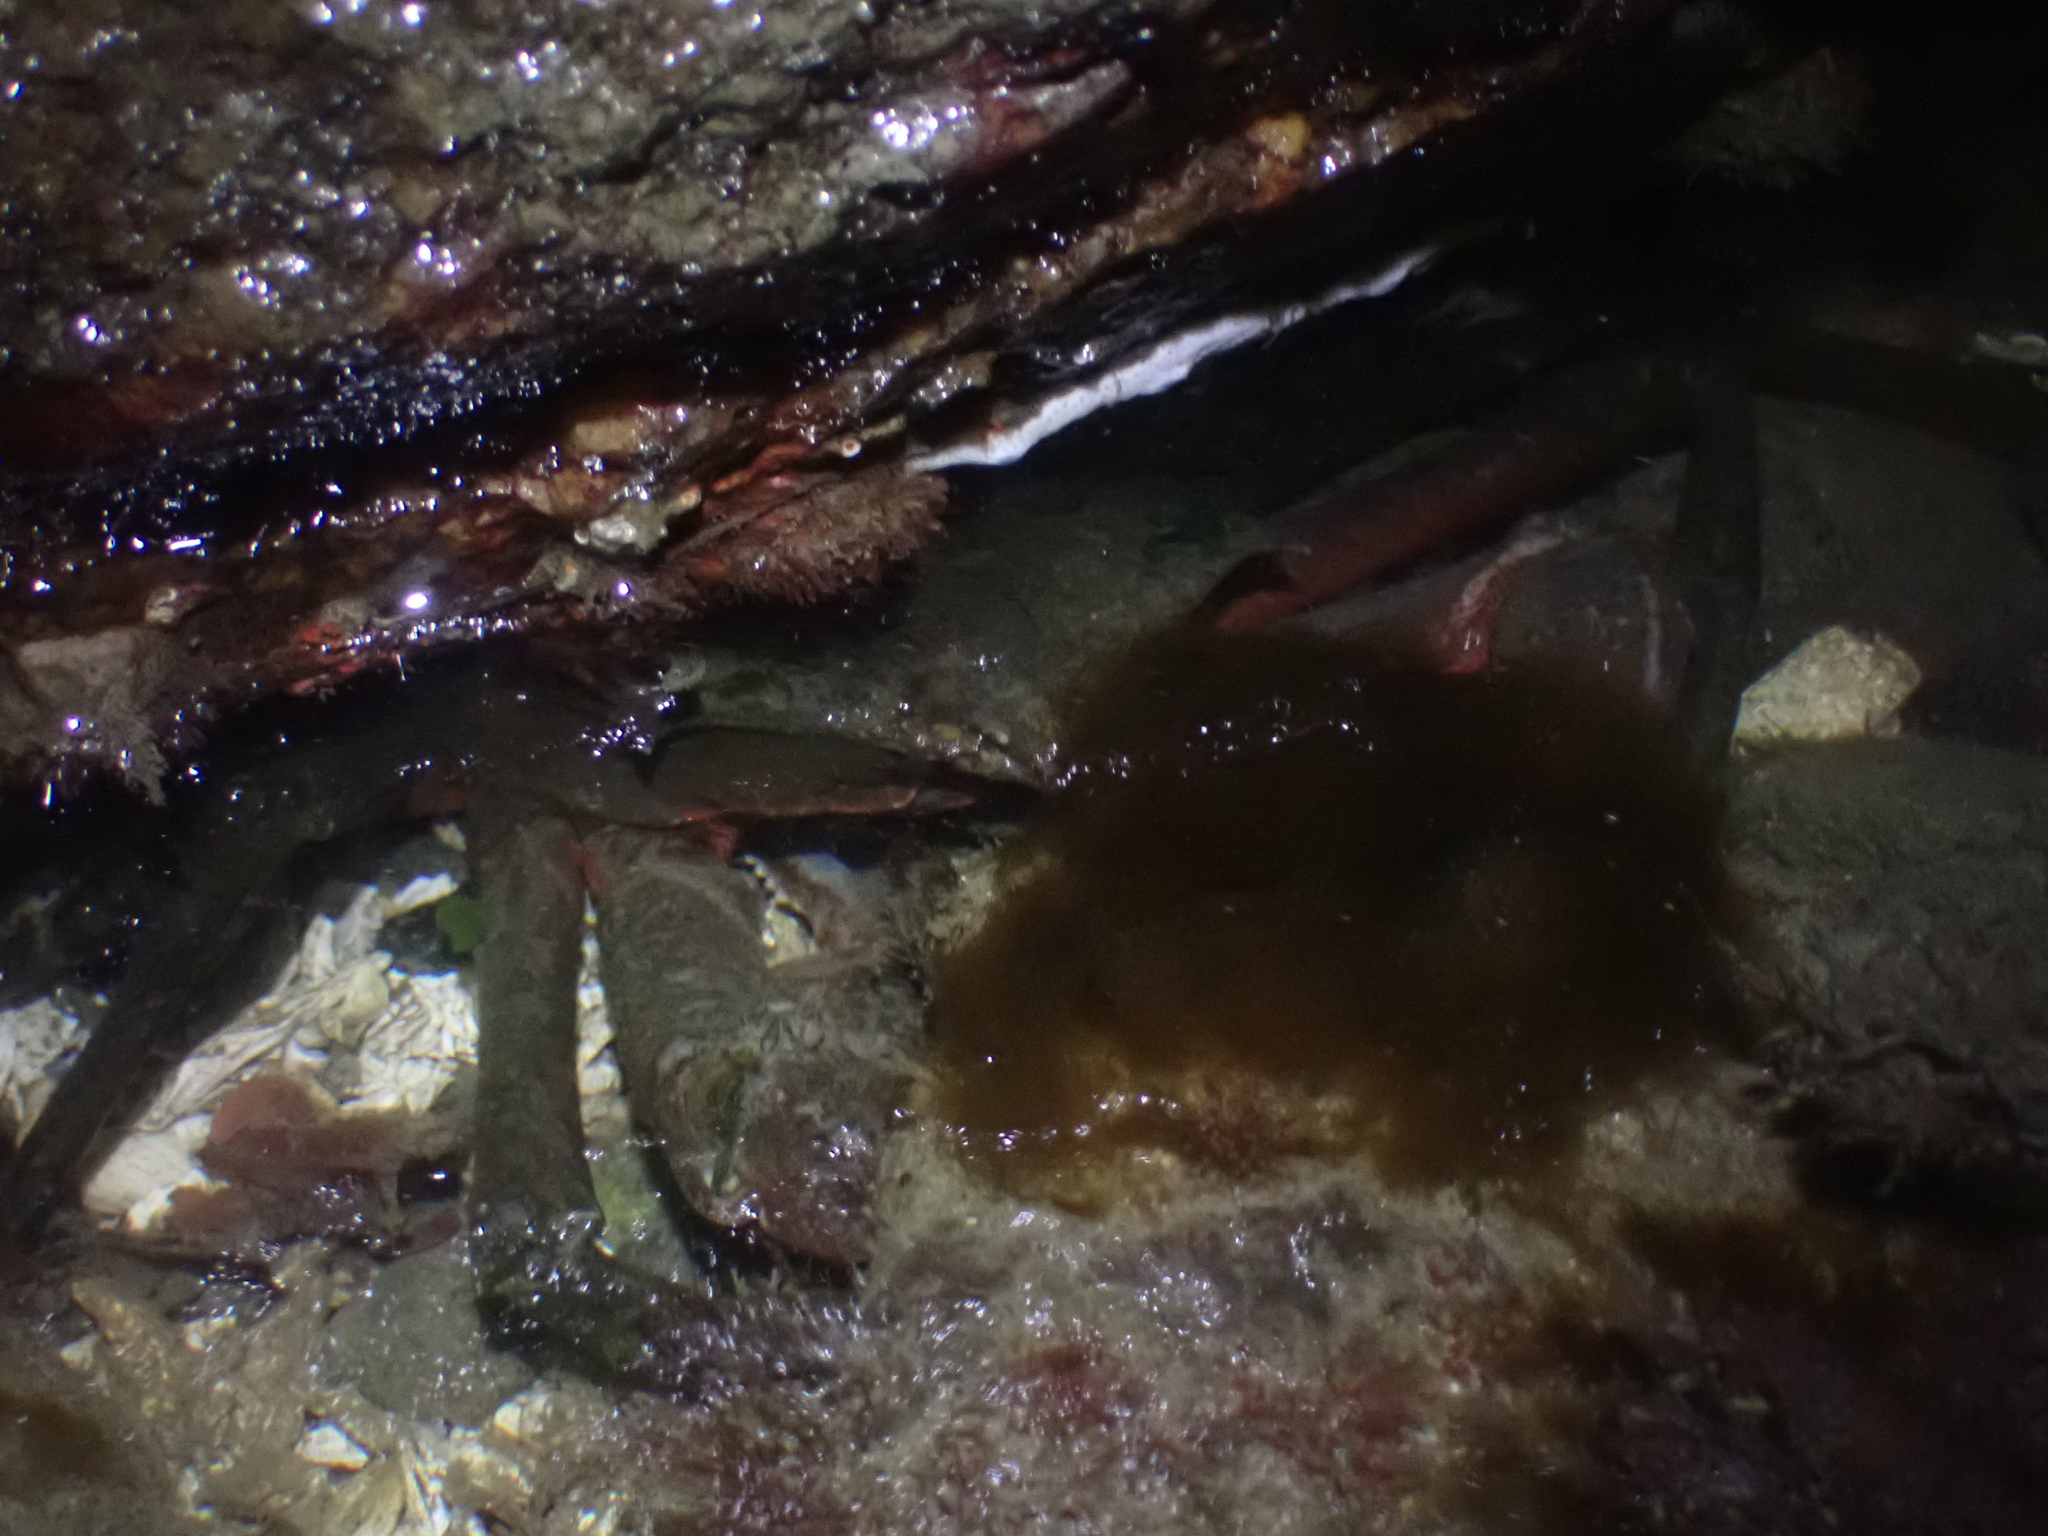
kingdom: Animalia
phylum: Arthropoda
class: Malacostraca
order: Decapoda
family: Epialtidae
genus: Pugettia
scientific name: Pugettia producta
